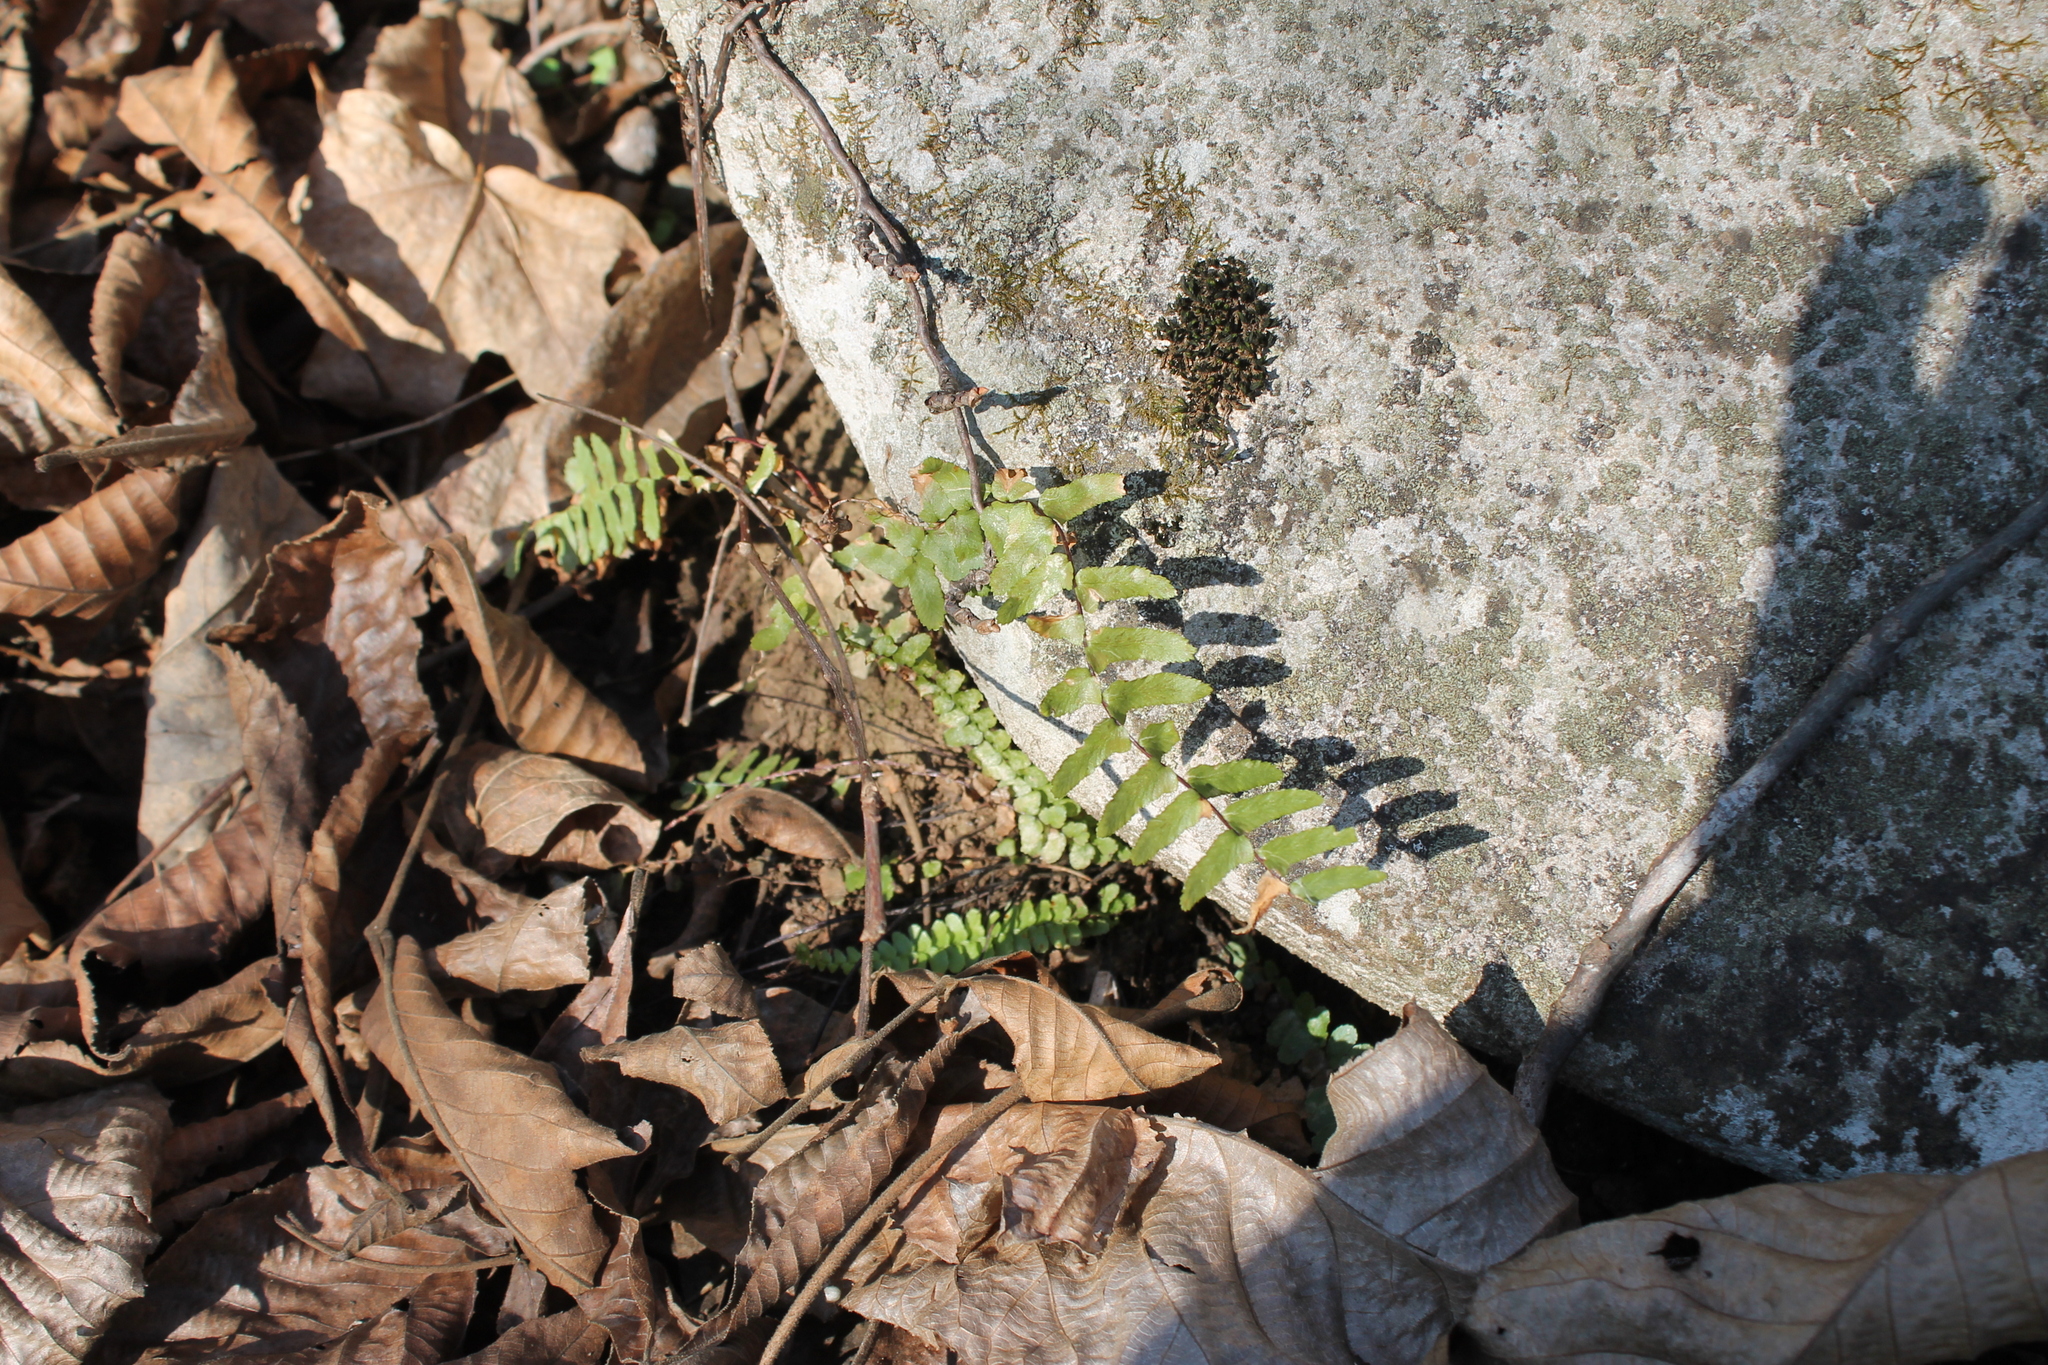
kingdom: Plantae
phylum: Tracheophyta
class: Polypodiopsida
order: Polypodiales
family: Aspleniaceae
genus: Asplenium
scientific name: Asplenium platyneuron
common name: Ebony spleenwort
